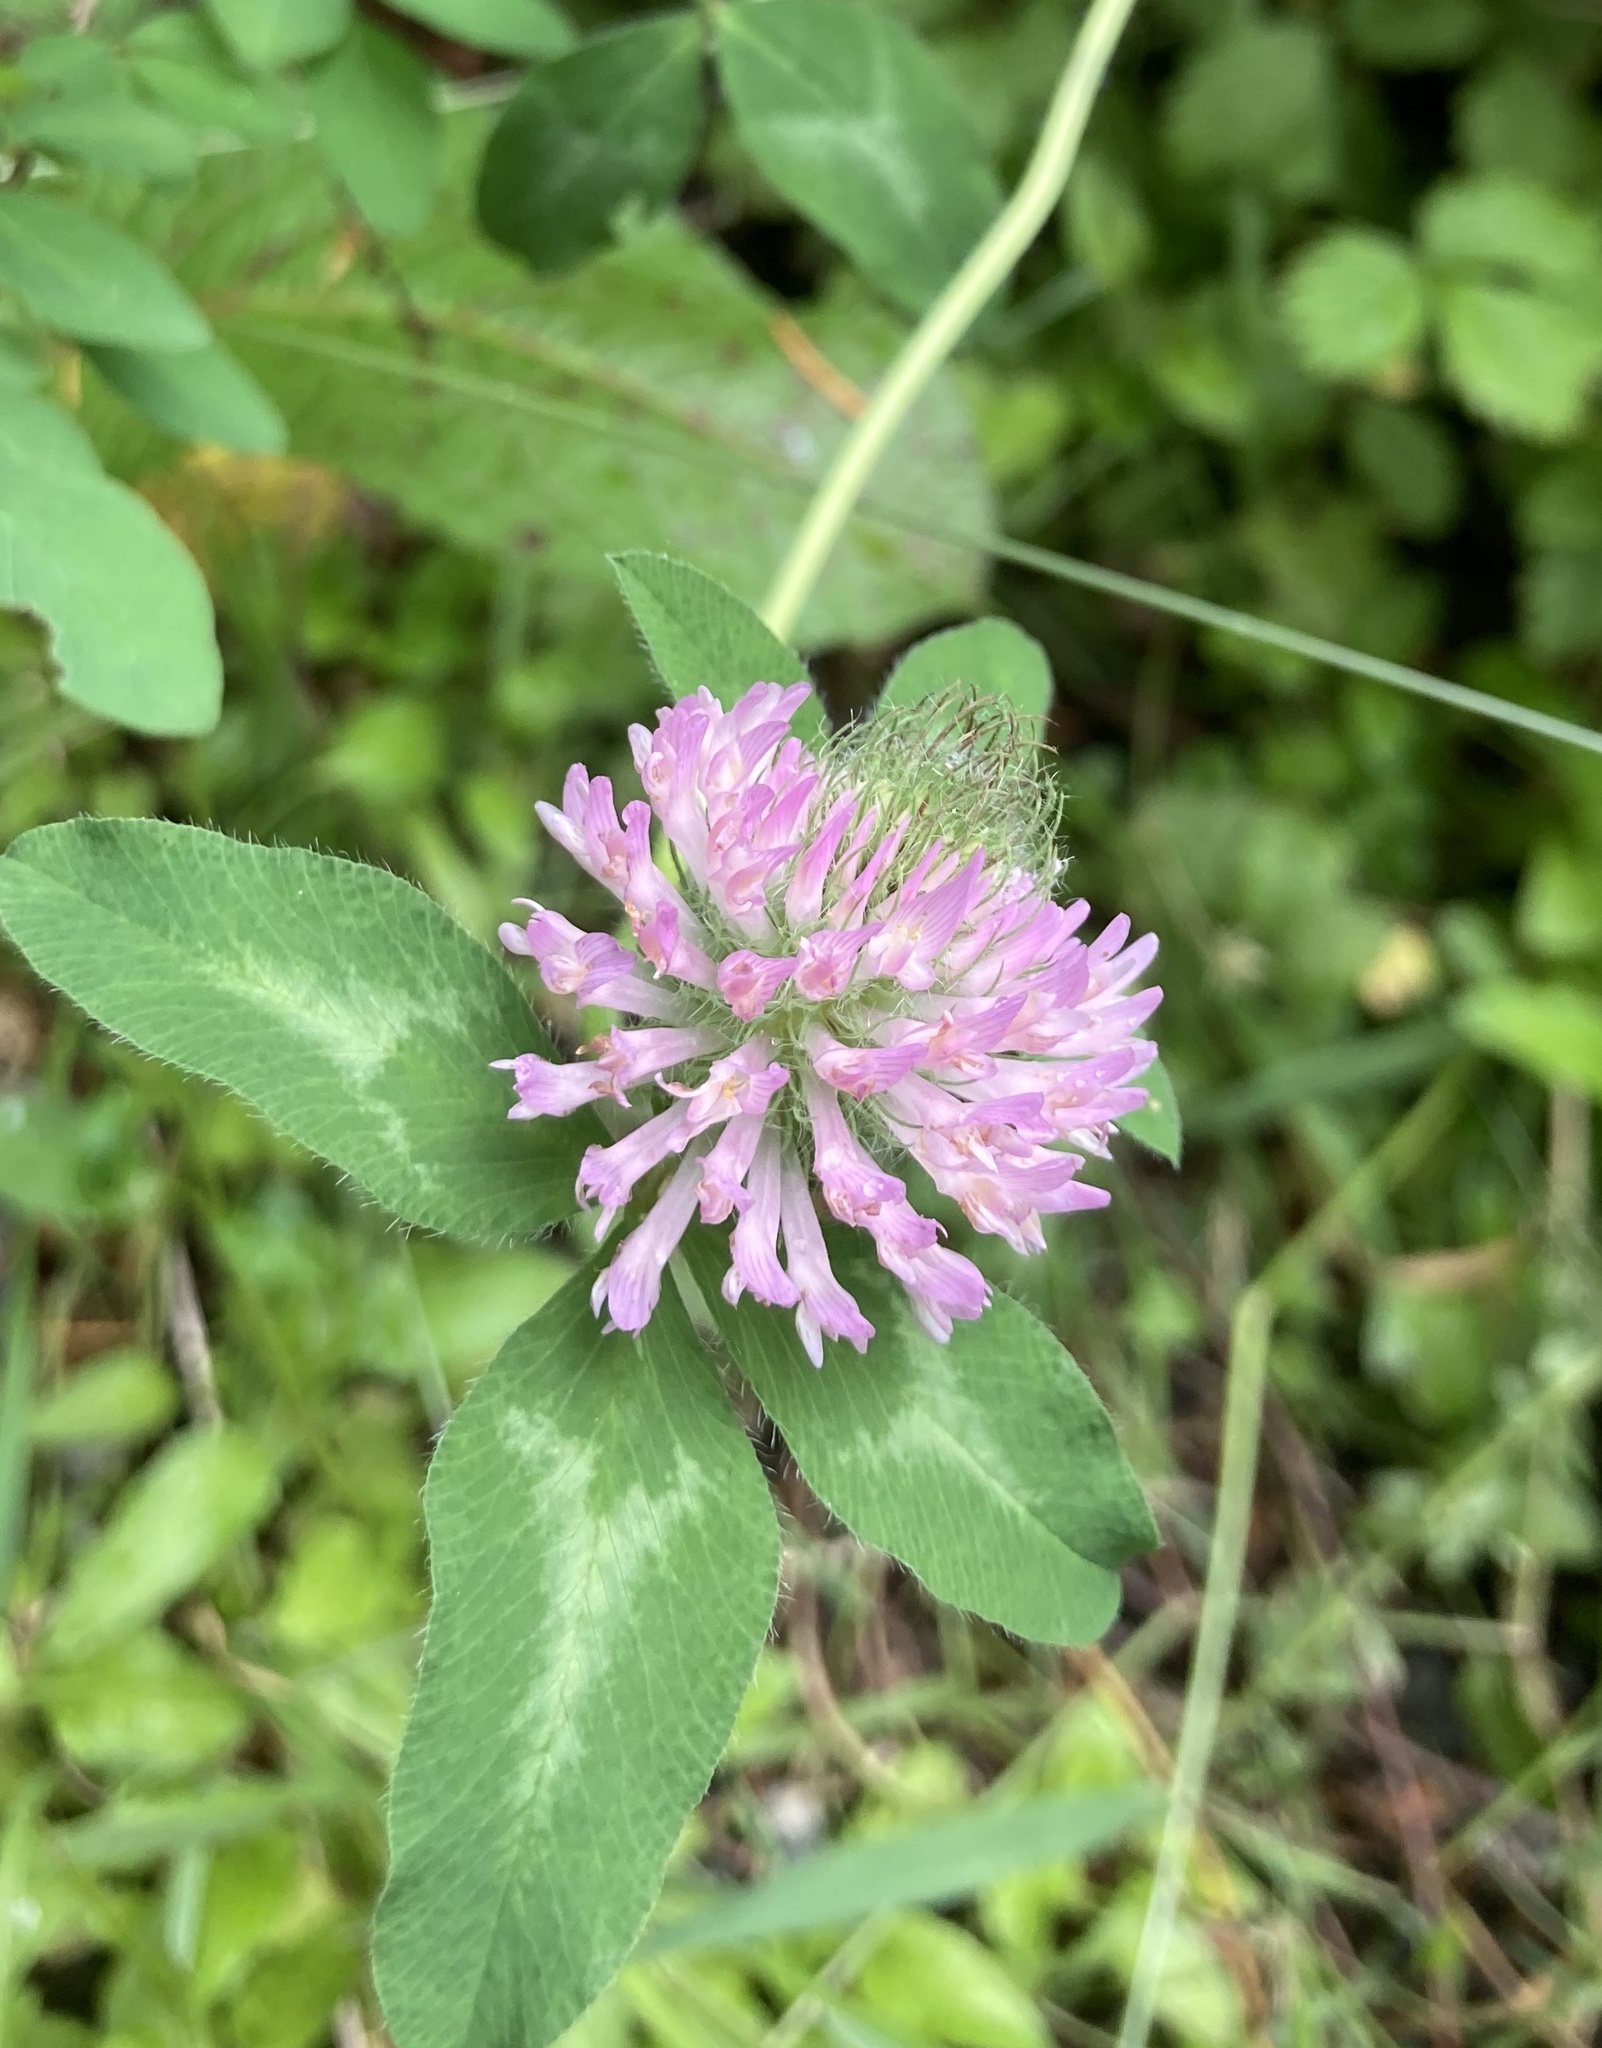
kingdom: Plantae
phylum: Tracheophyta
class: Magnoliopsida
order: Fabales
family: Fabaceae
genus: Trifolium
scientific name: Trifolium pratense
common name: Red clover
